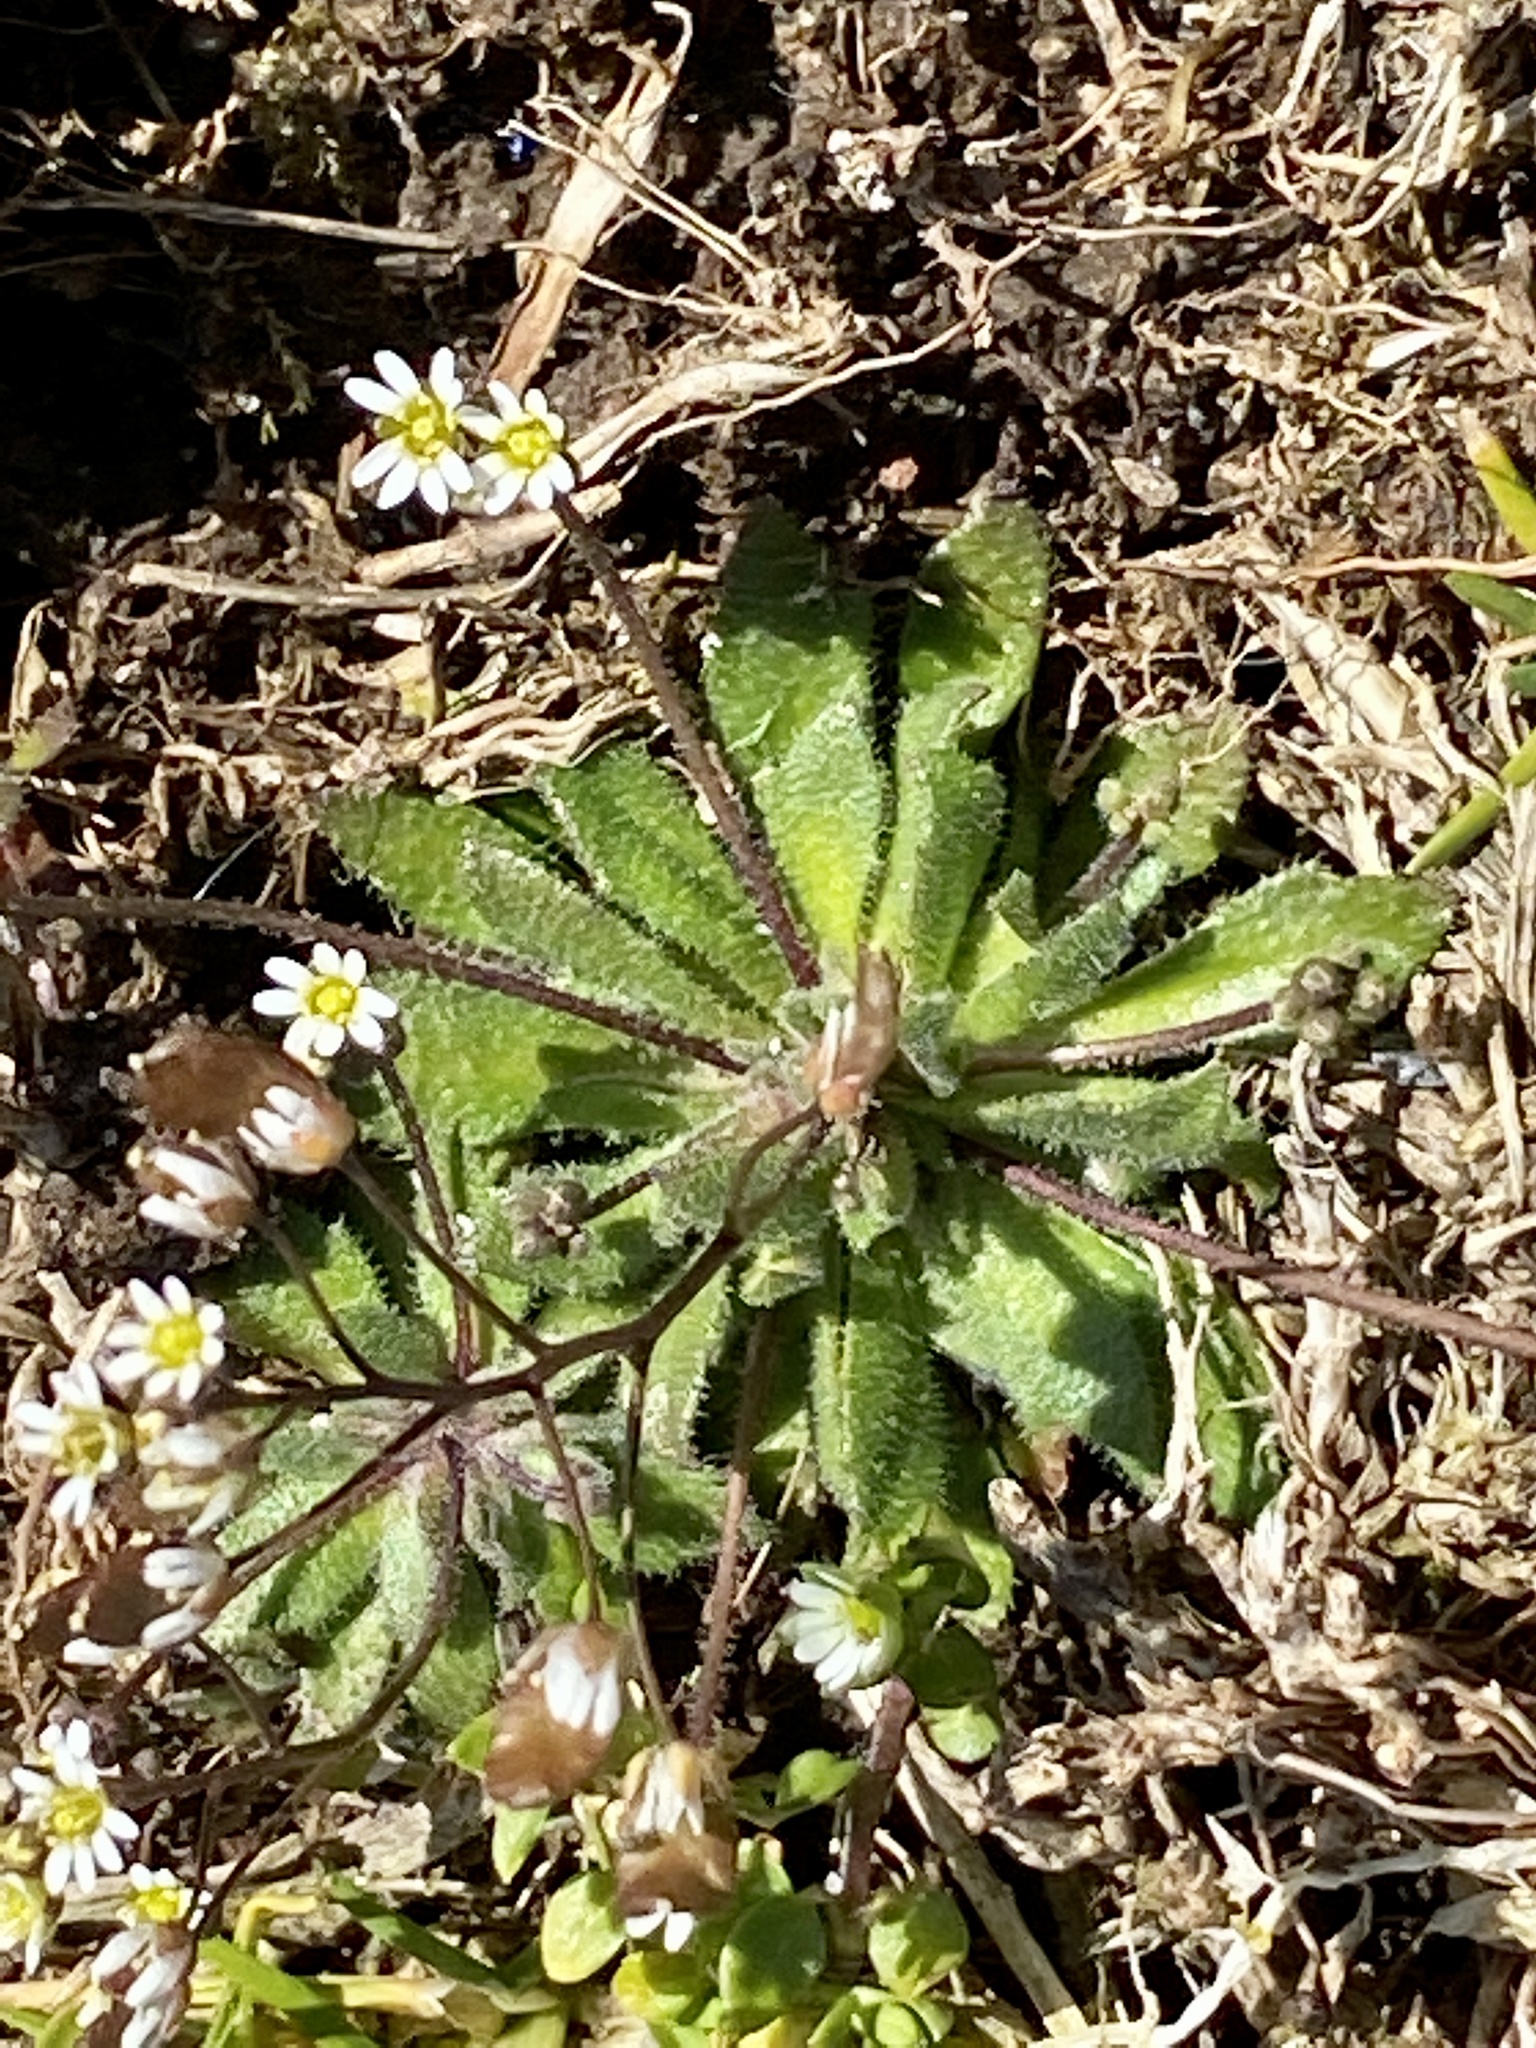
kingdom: Plantae
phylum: Tracheophyta
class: Magnoliopsida
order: Brassicales
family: Brassicaceae
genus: Draba
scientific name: Draba verna
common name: Spring draba
